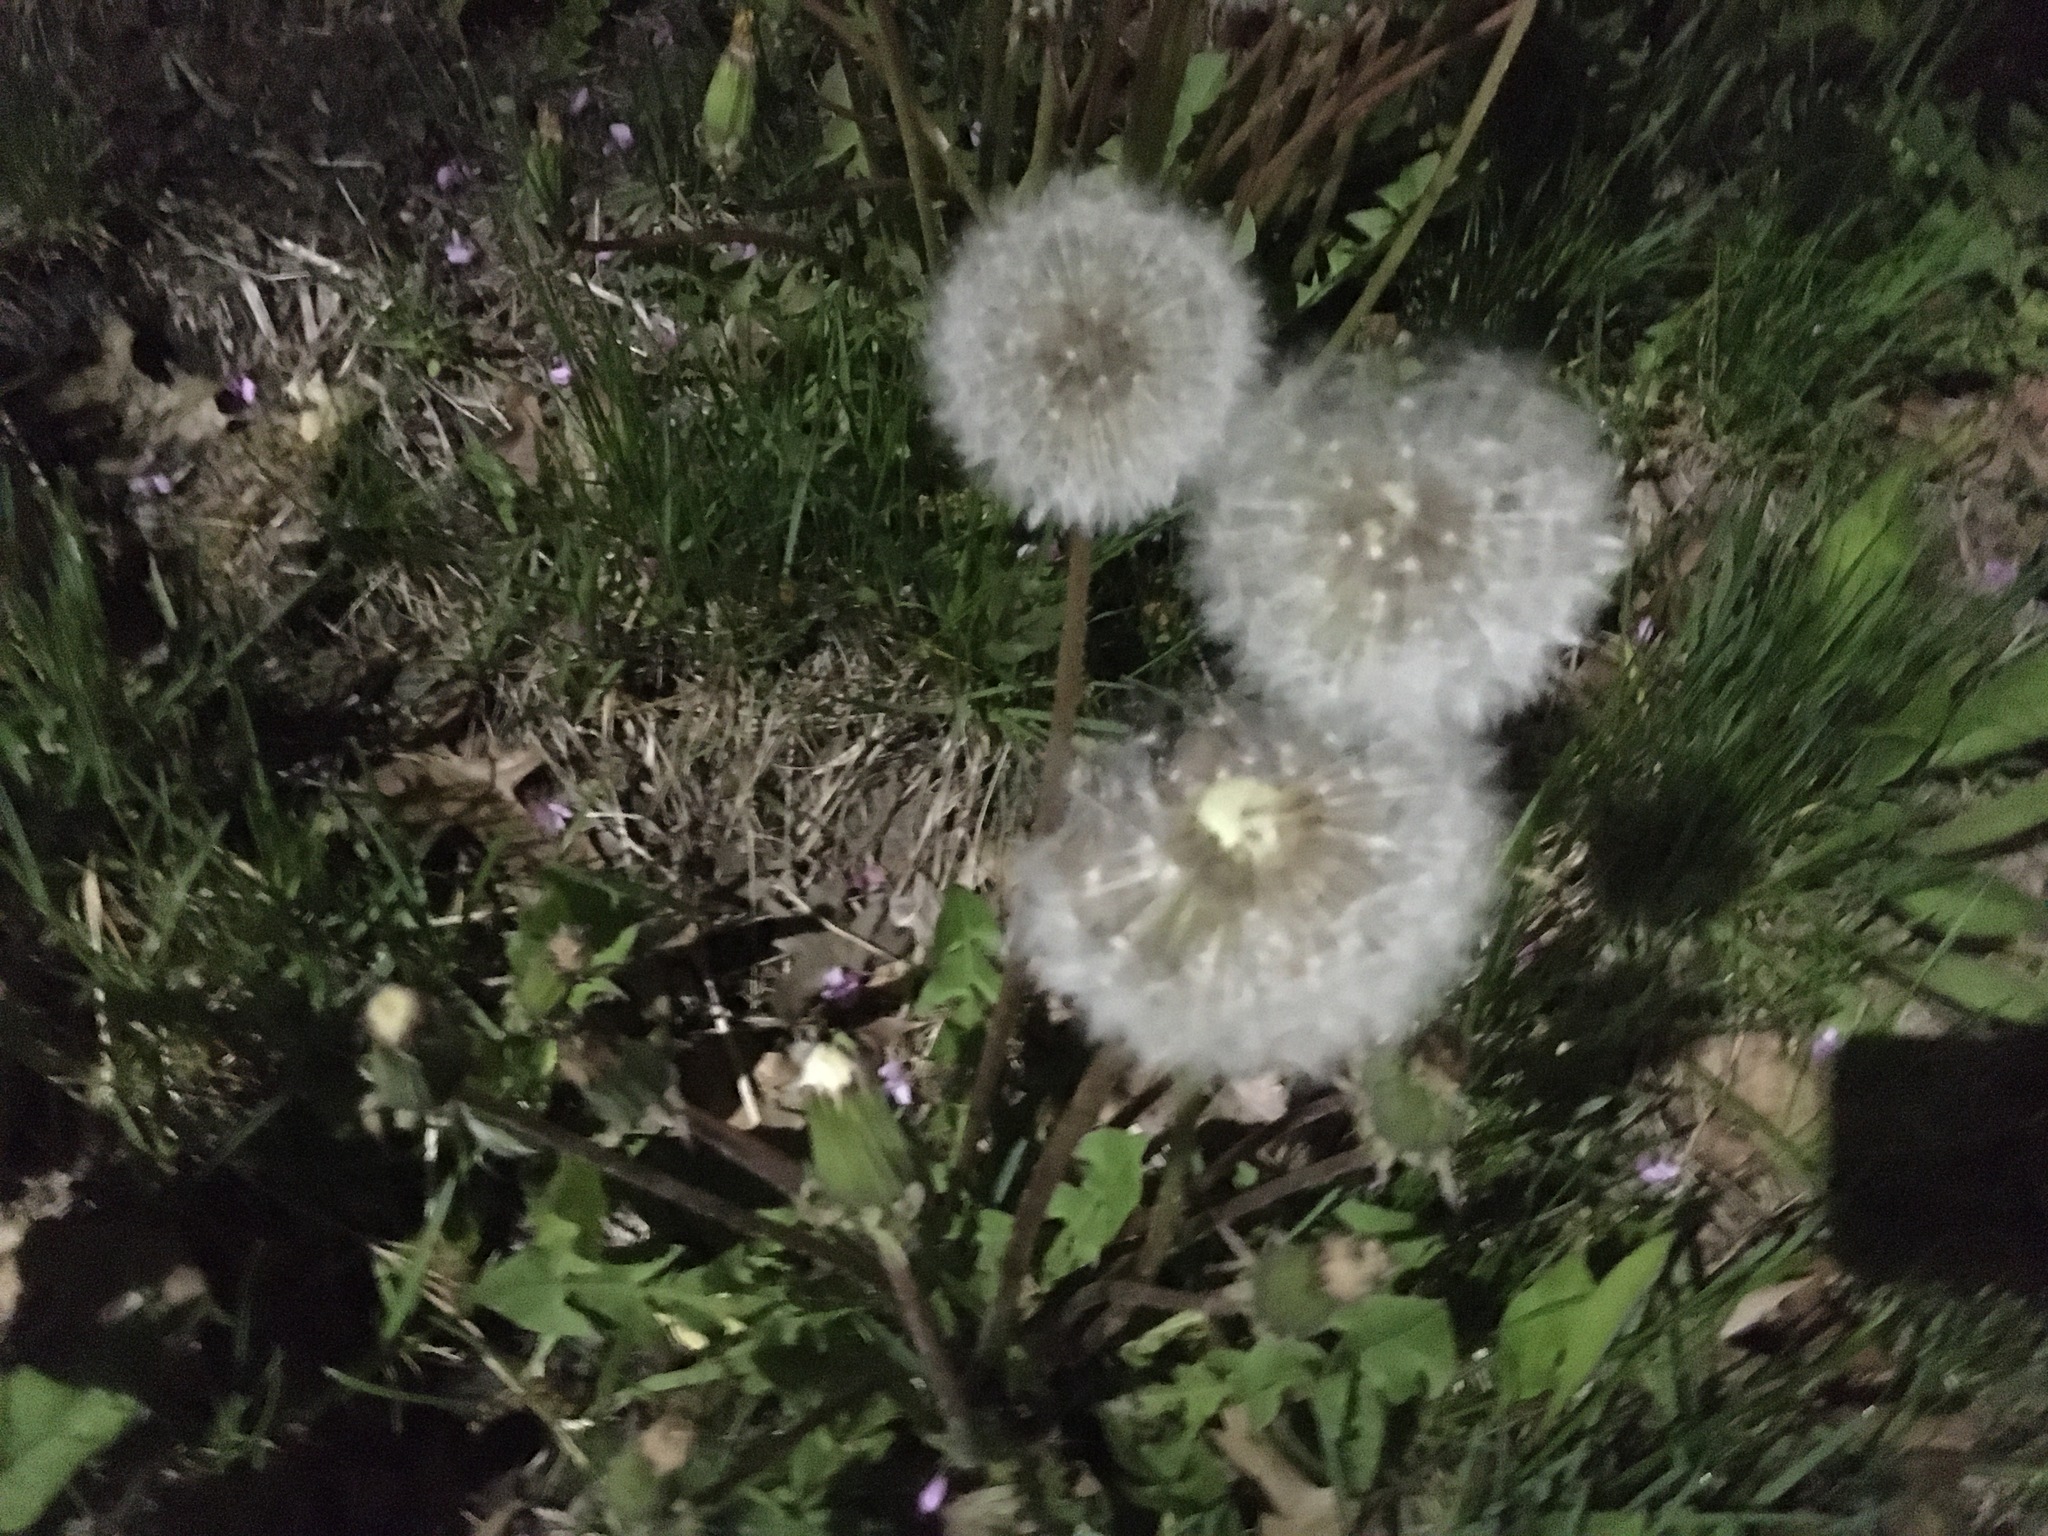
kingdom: Plantae
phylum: Tracheophyta
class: Magnoliopsida
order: Asterales
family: Asteraceae
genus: Taraxacum
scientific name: Taraxacum officinale
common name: Common dandelion
